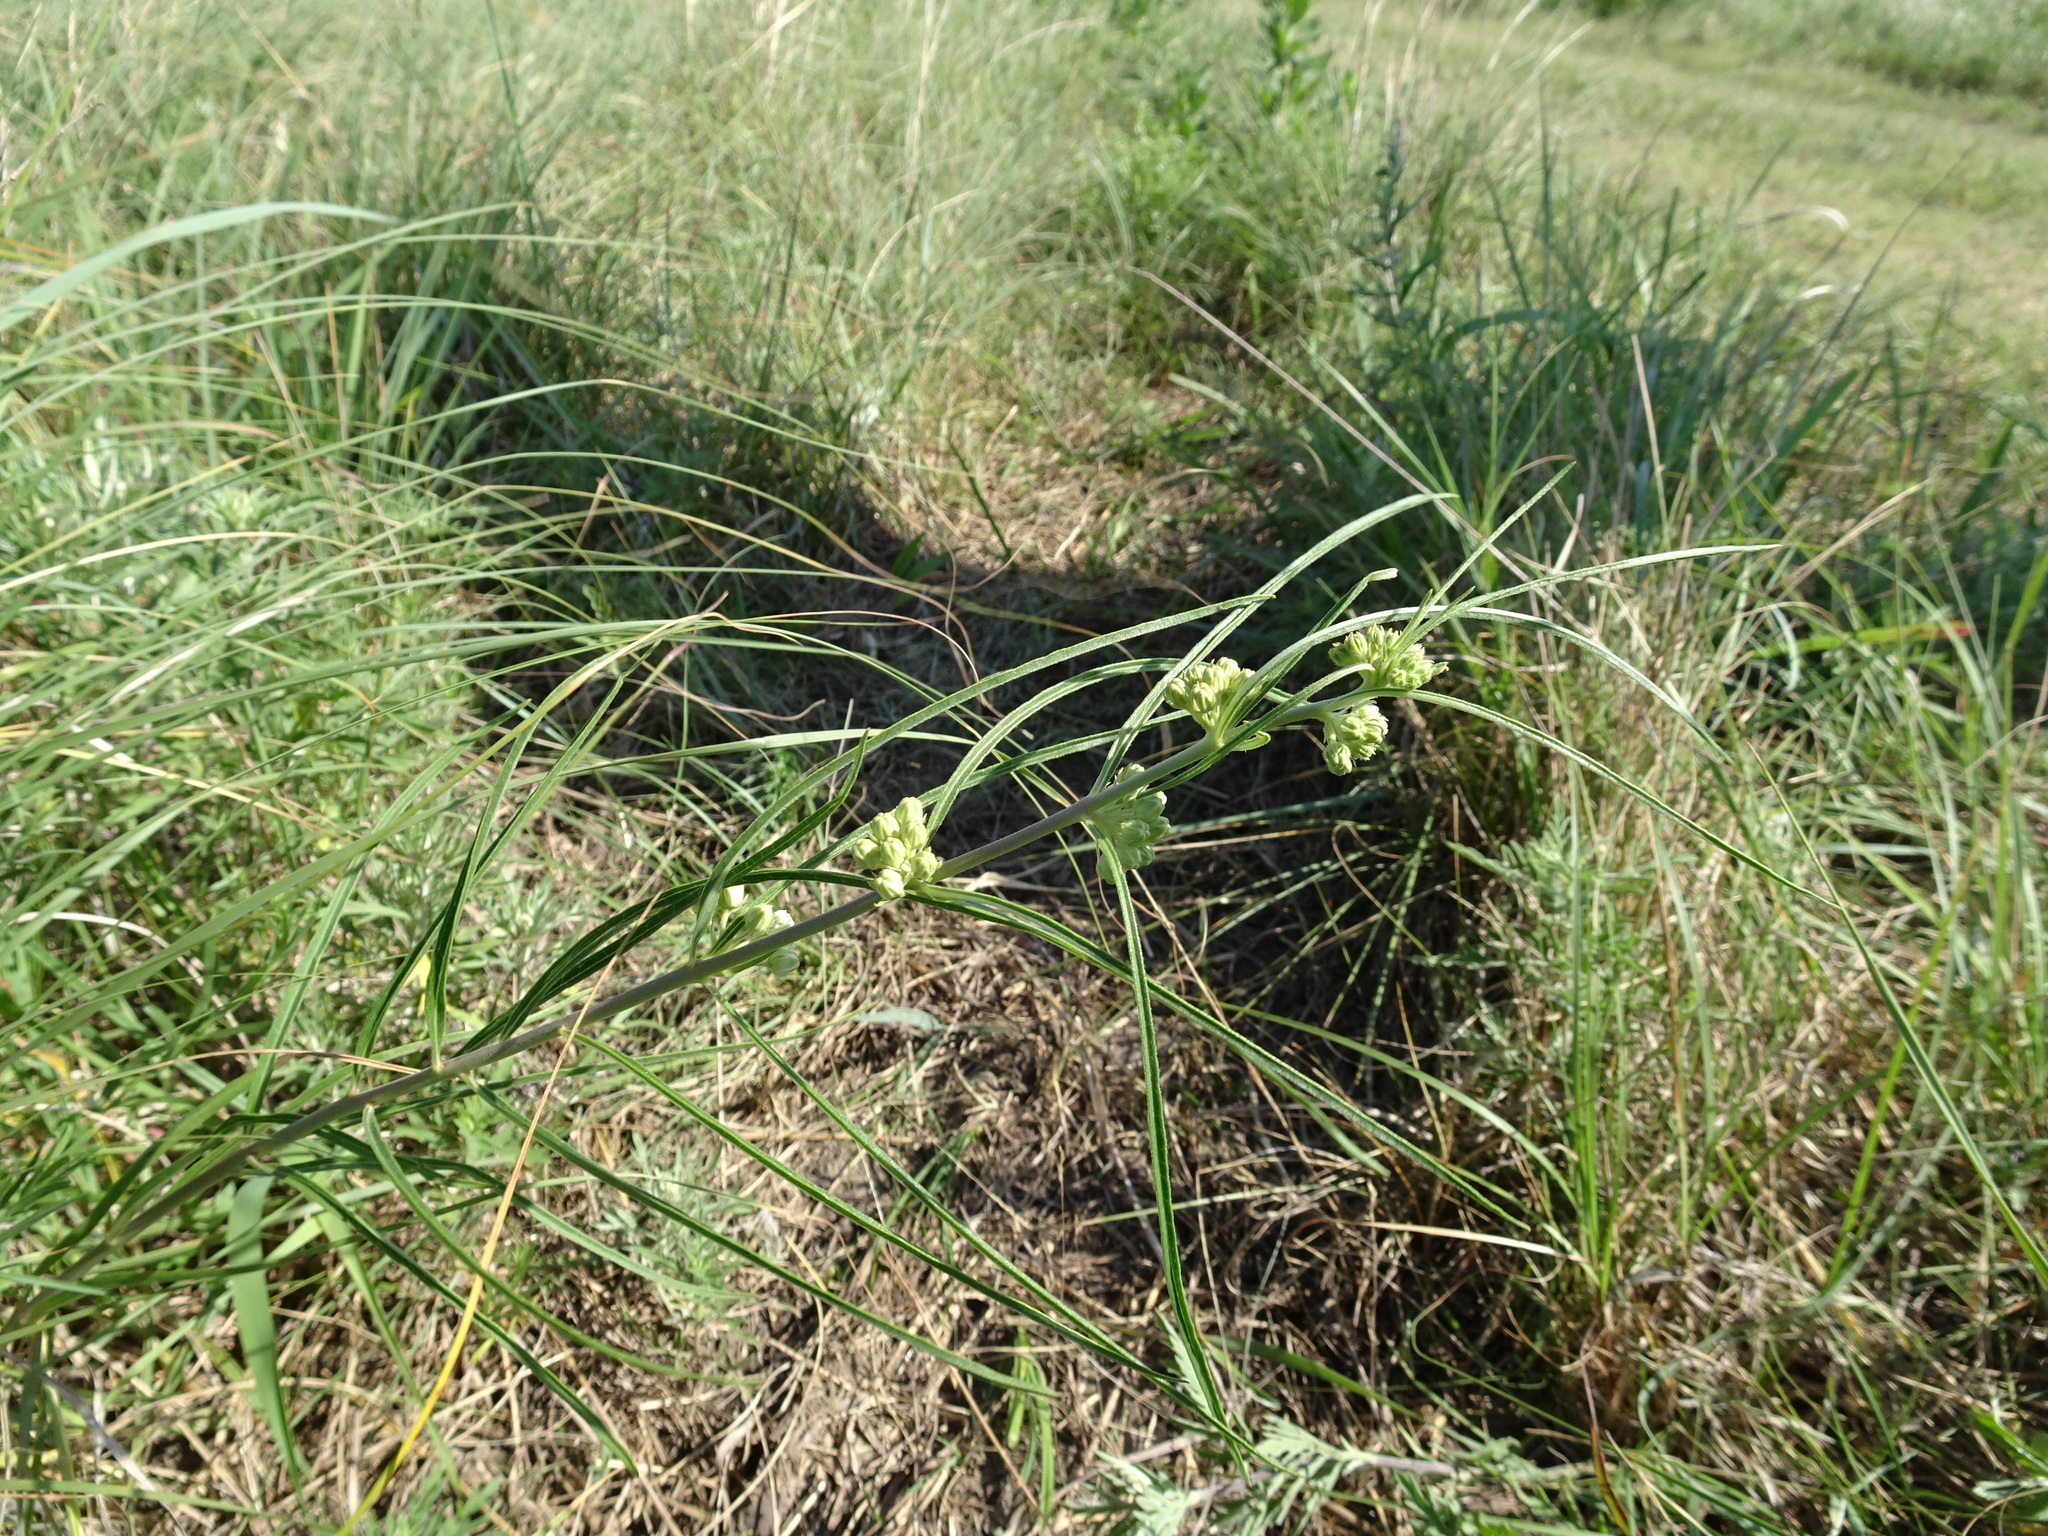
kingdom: Plantae
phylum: Tracheophyta
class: Magnoliopsida
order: Gentianales
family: Apocynaceae
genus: Asclepias
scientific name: Asclepias stenophylla
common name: Narrow-leaf milkweed
